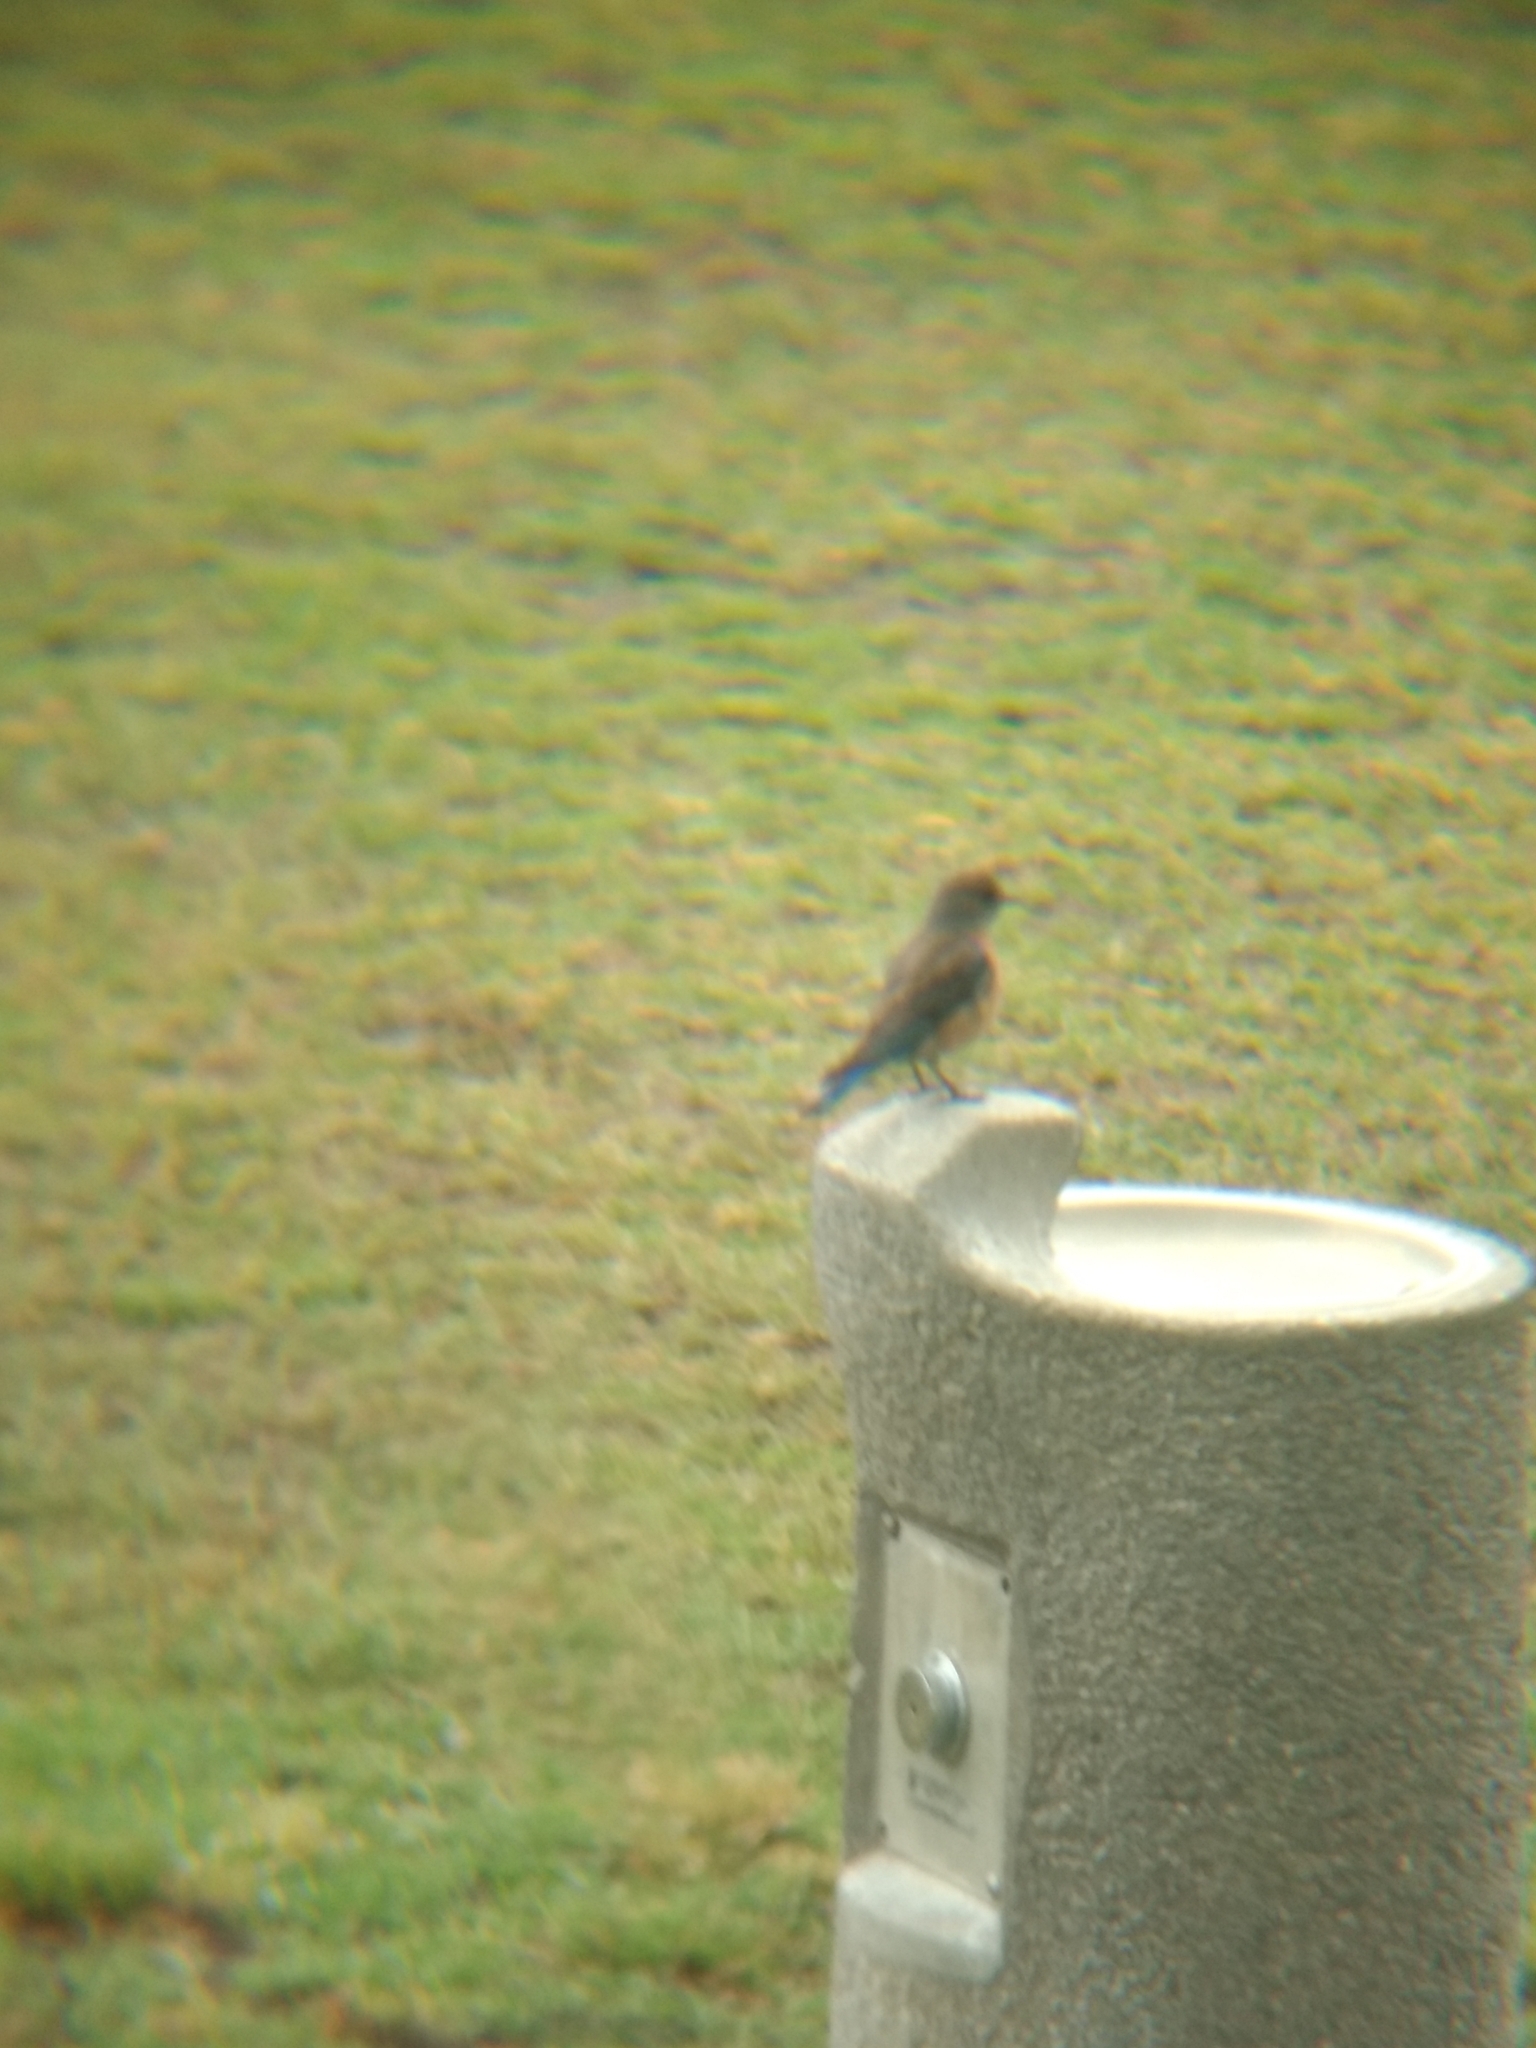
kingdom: Animalia
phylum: Chordata
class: Aves
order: Passeriformes
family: Turdidae
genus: Sialia
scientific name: Sialia mexicana
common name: Western bluebird
